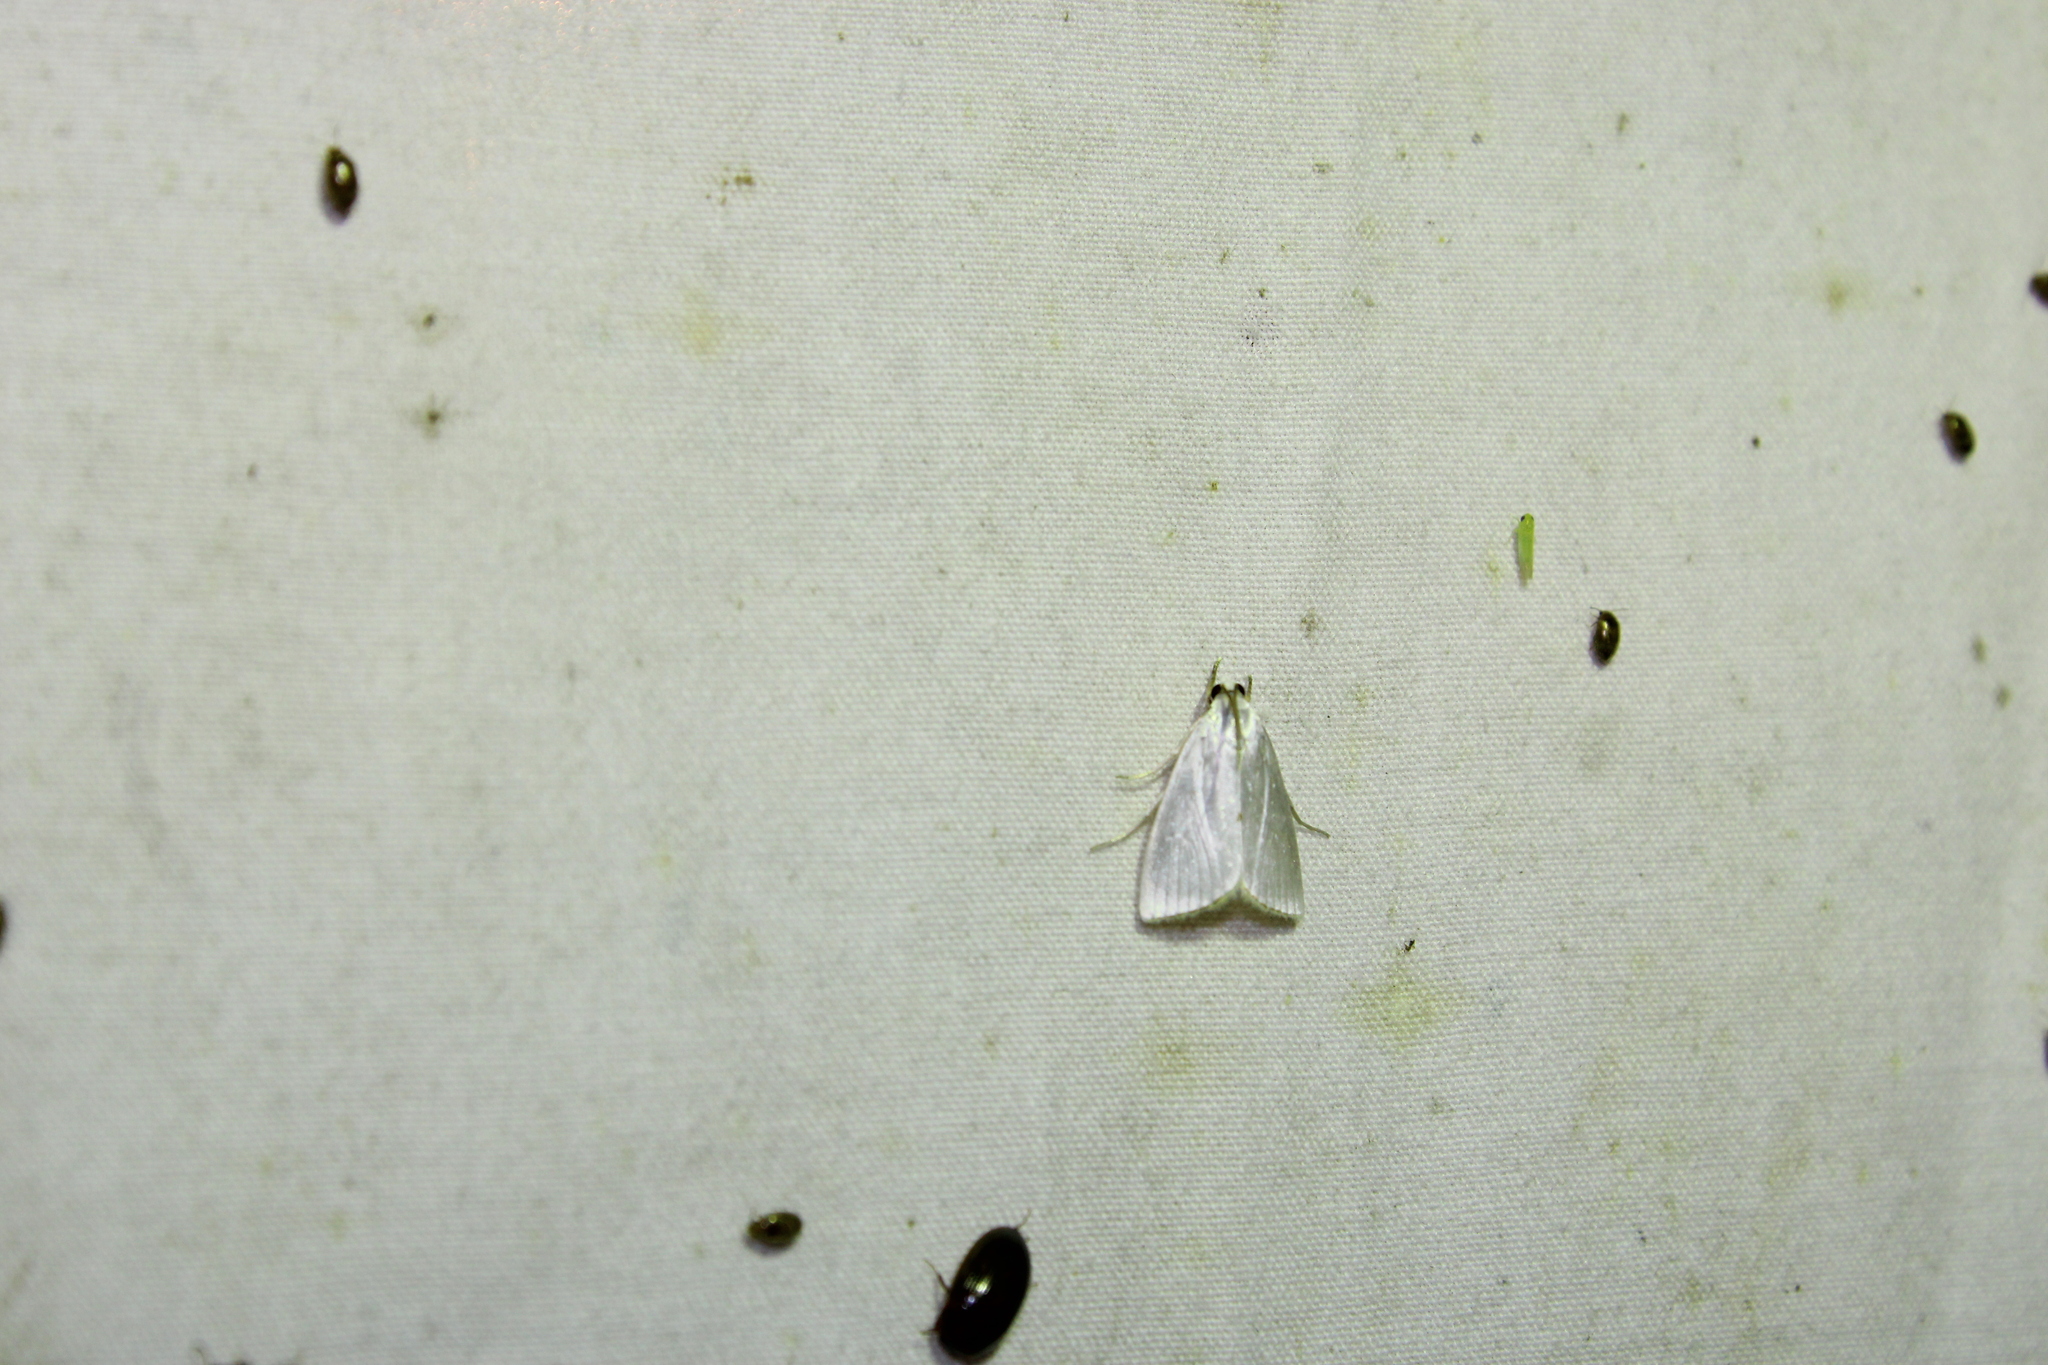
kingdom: Animalia
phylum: Arthropoda
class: Insecta
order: Lepidoptera
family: Crambidae
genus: Argyria
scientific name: Argyria nivalis
